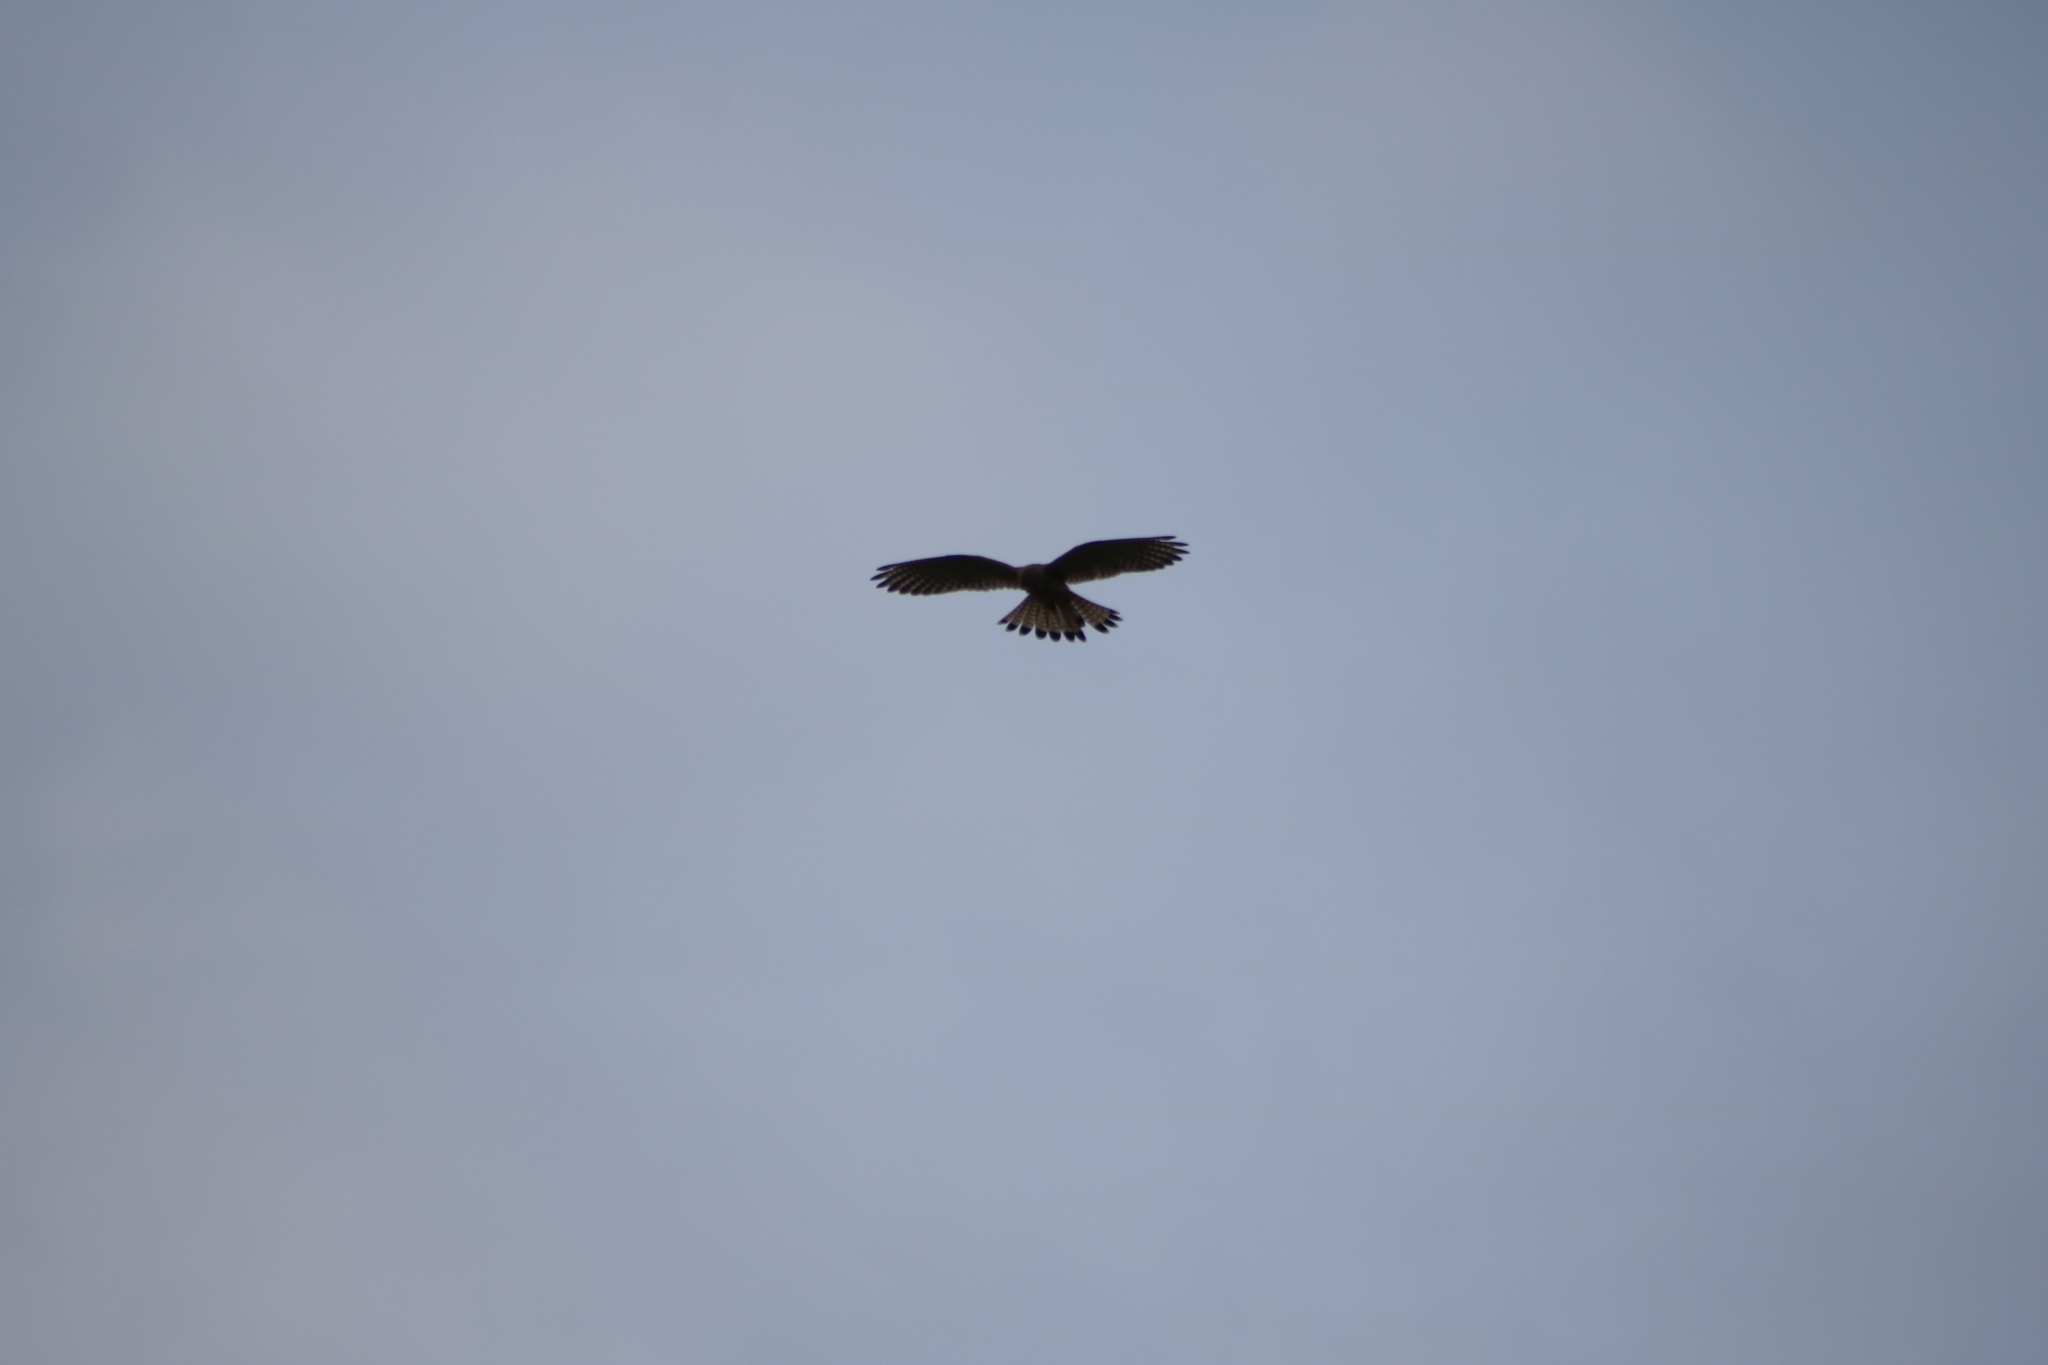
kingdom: Animalia
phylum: Chordata
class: Aves
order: Falconiformes
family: Falconidae
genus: Falco
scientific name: Falco tinnunculus
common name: Common kestrel
